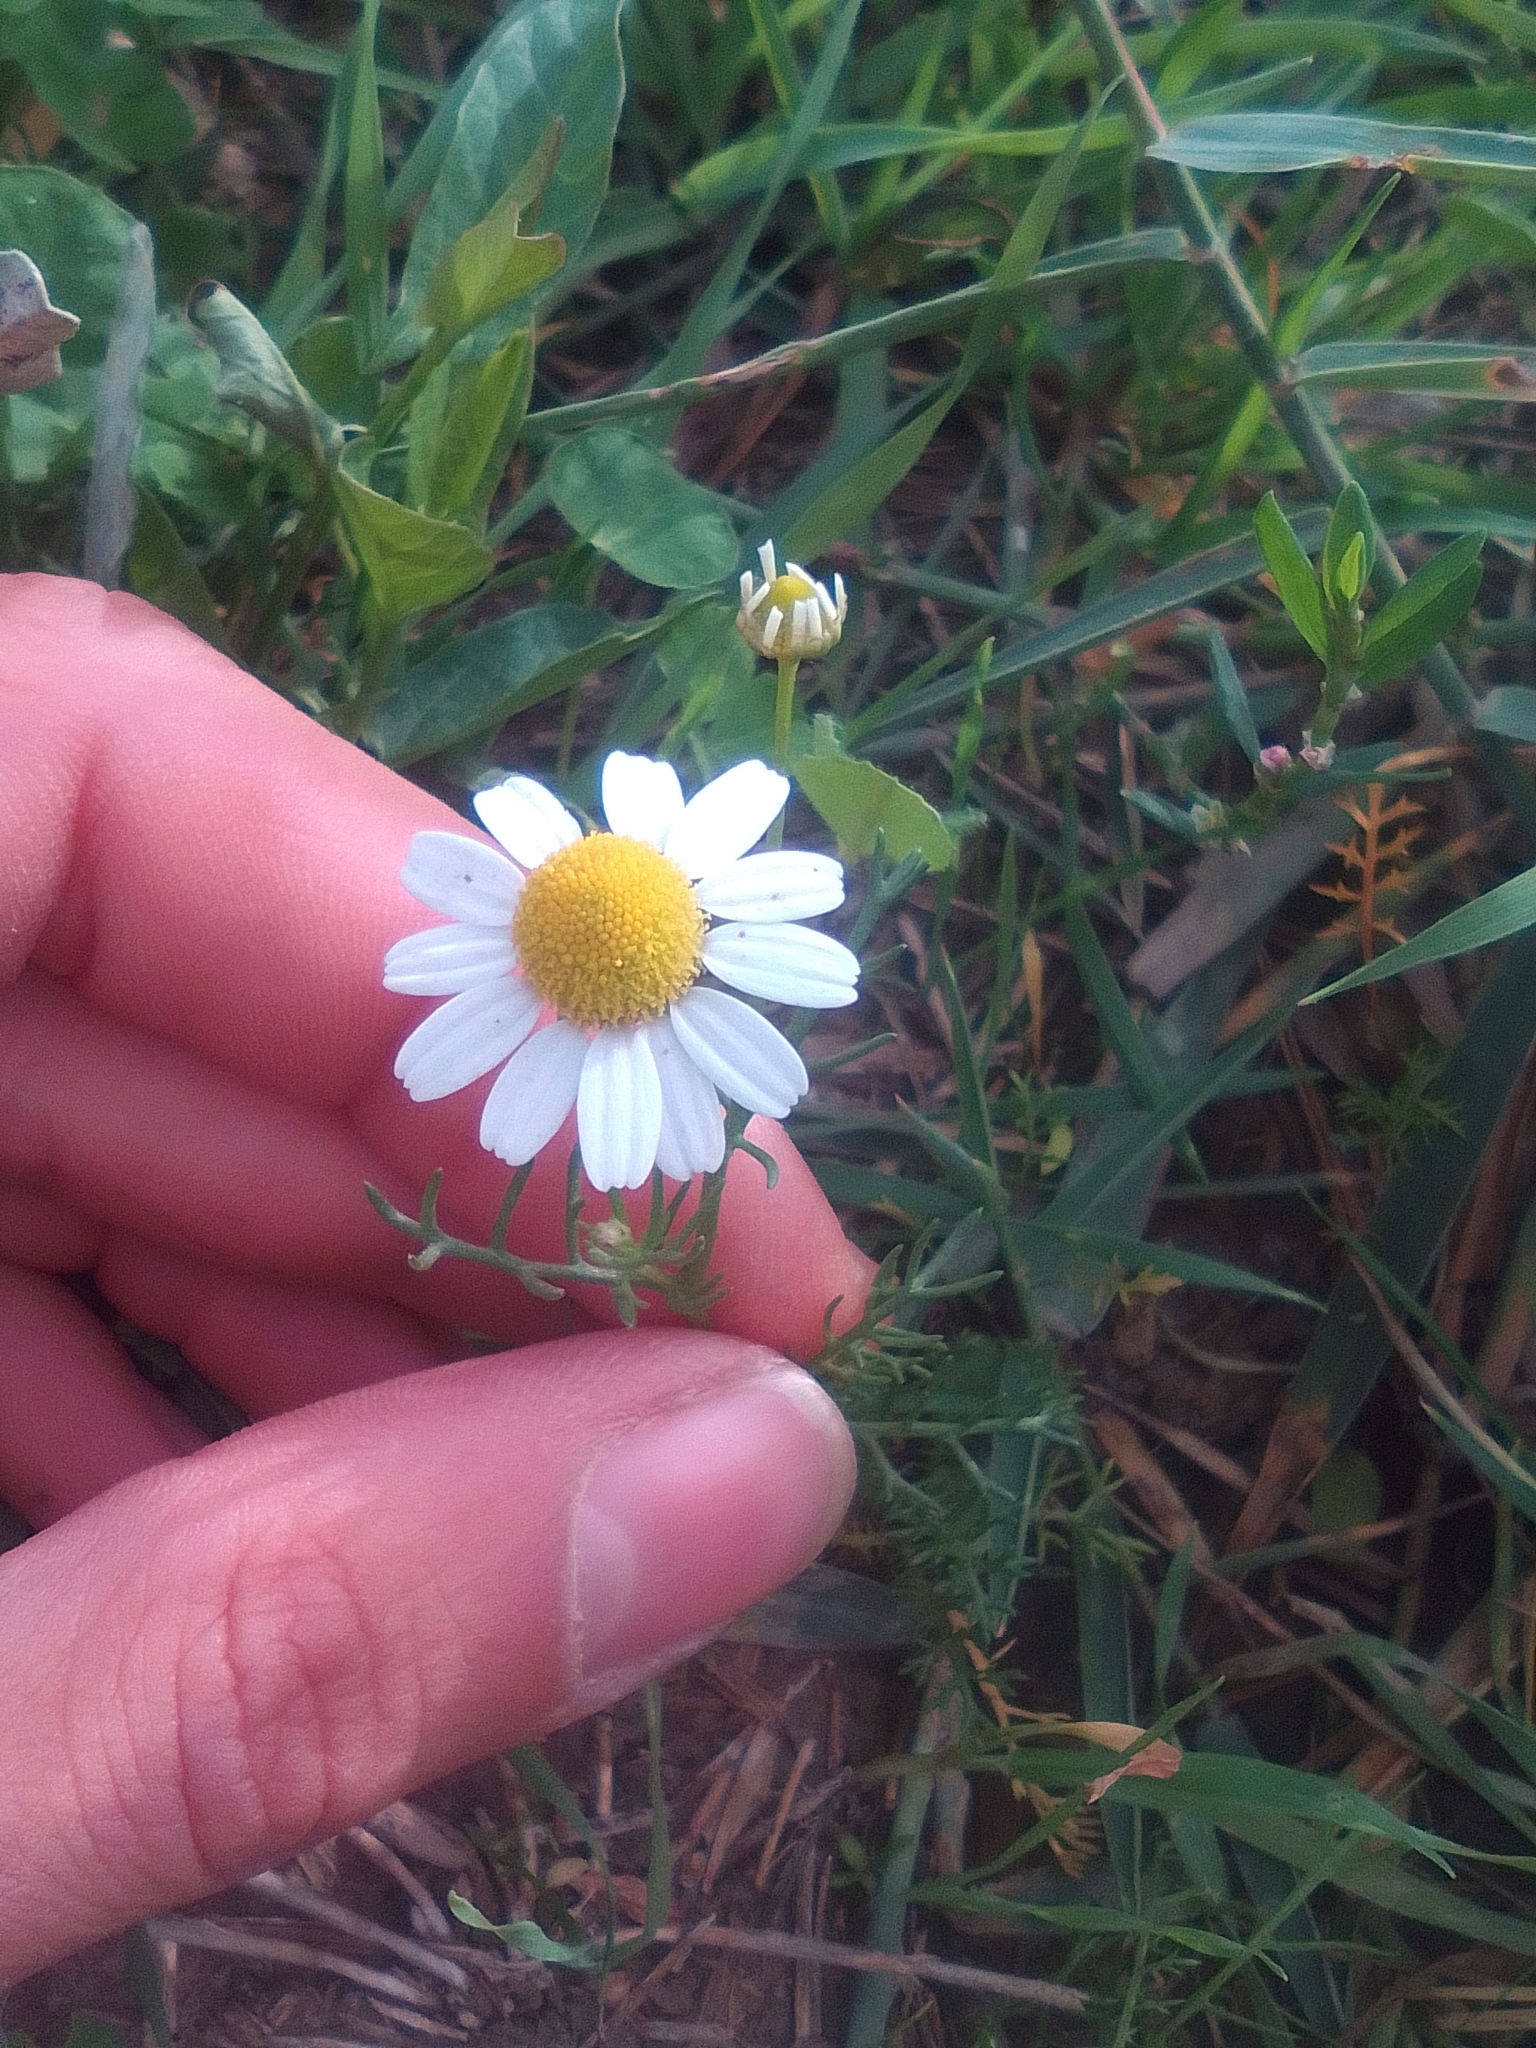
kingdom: Plantae
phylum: Tracheophyta
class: Magnoliopsida
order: Asterales
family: Asteraceae
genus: Matricaria
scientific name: Matricaria chamomilla
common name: Scented mayweed
